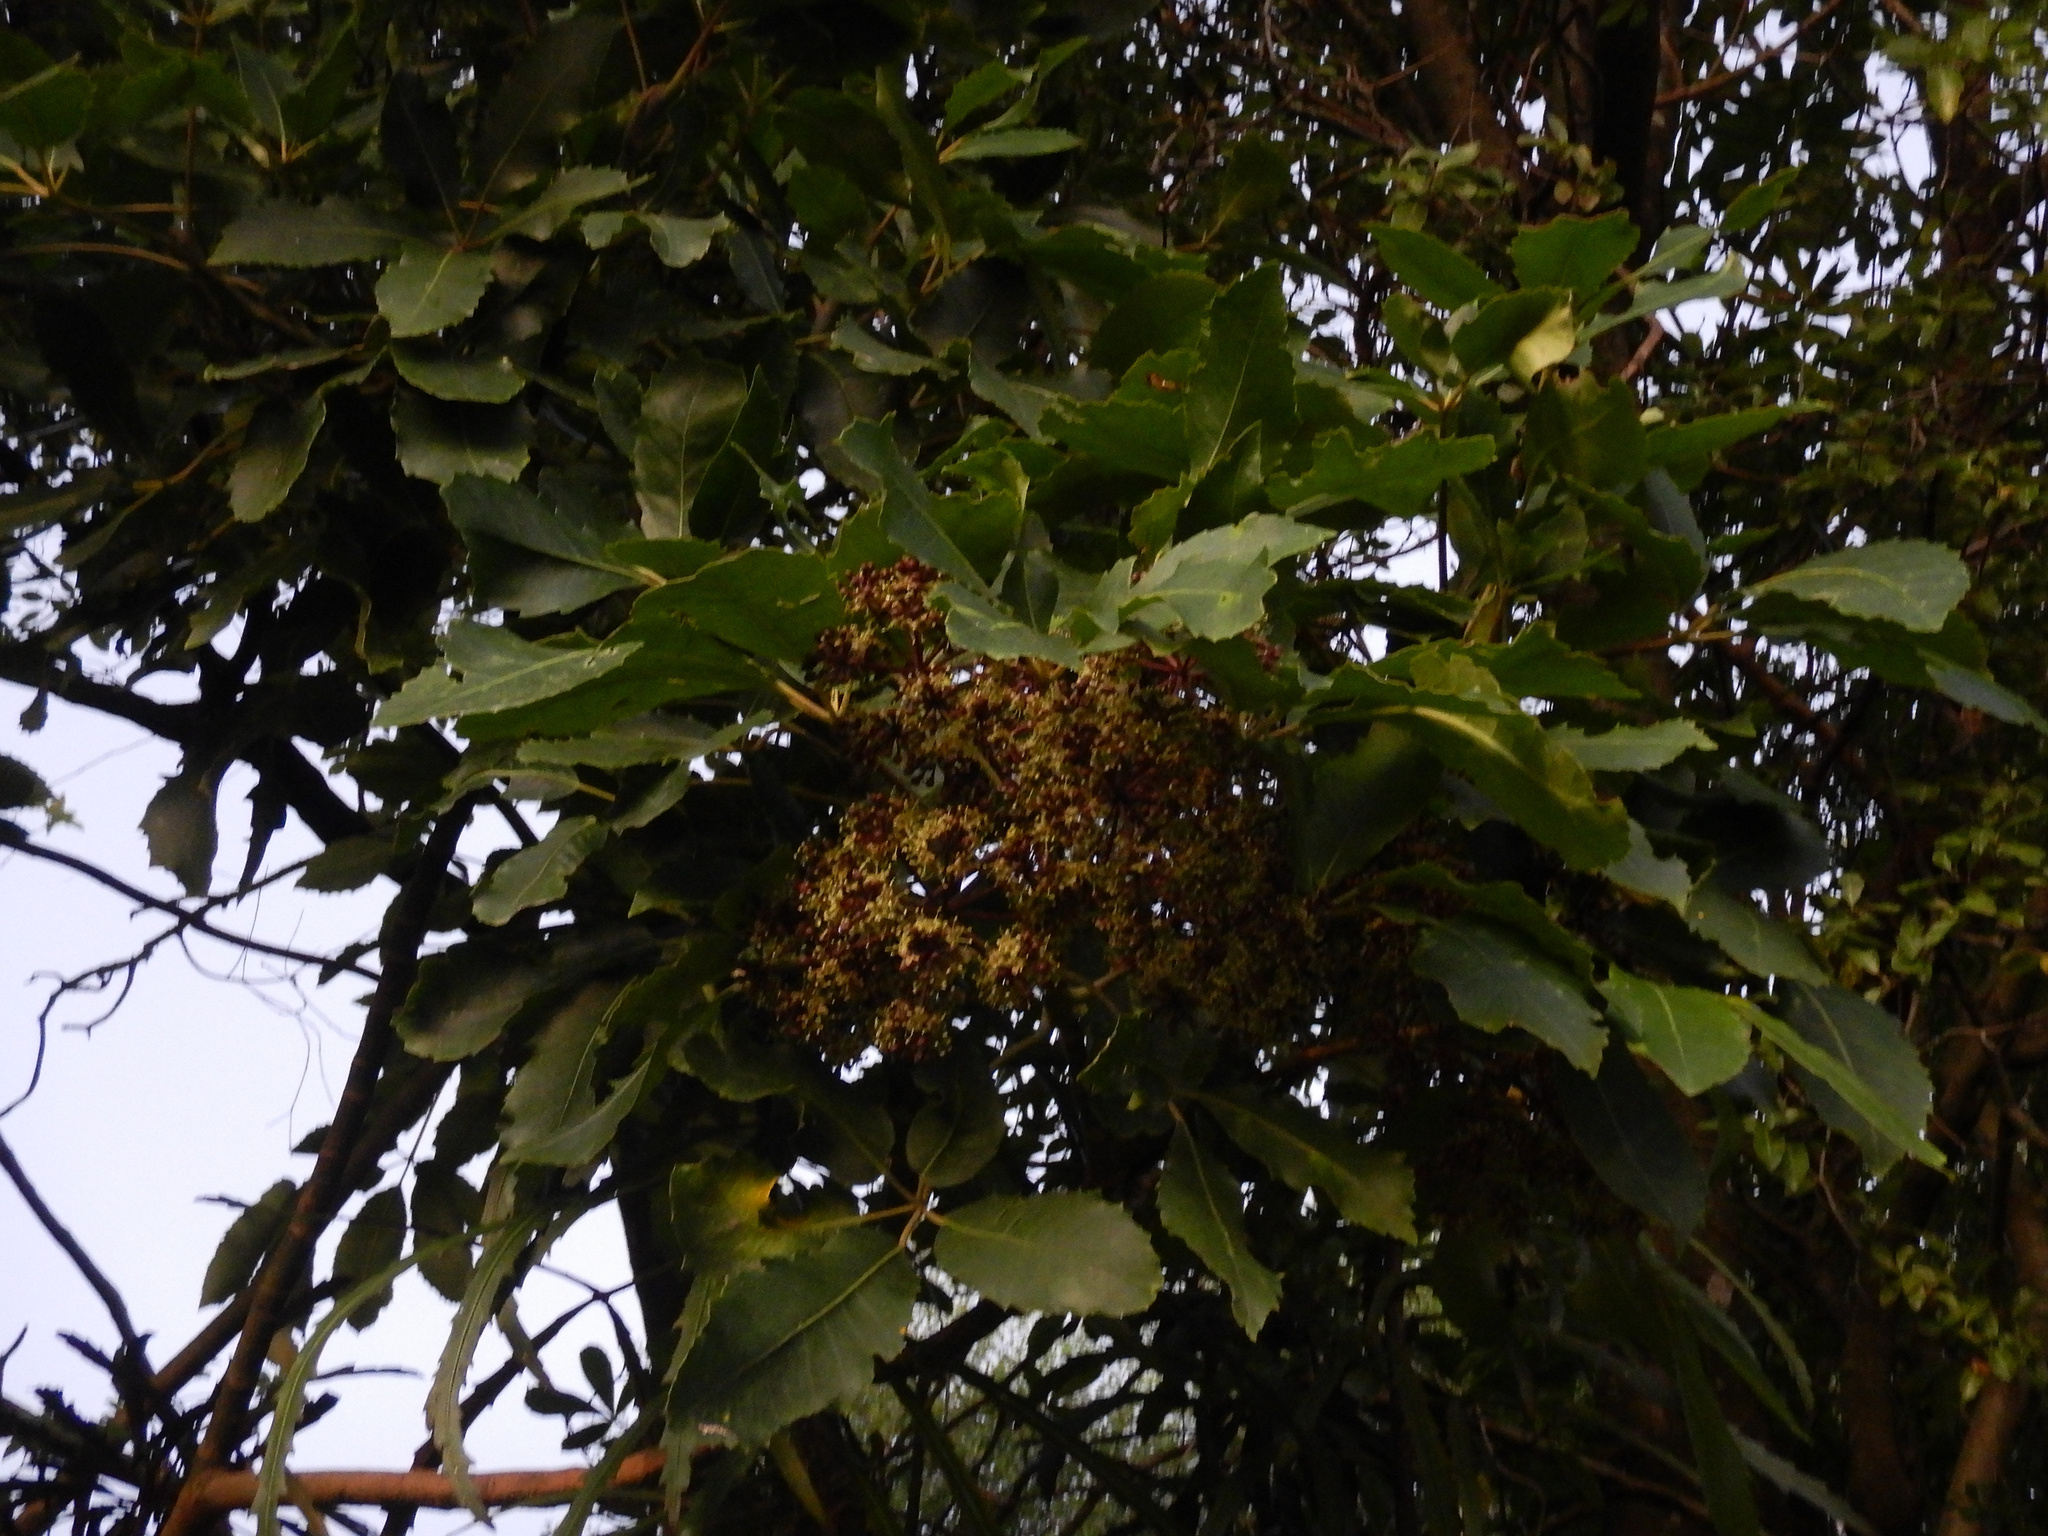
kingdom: Plantae
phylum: Tracheophyta
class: Magnoliopsida
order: Apiales
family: Araliaceae
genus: Neopanax
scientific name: Neopanax arboreus
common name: Five-fingers
